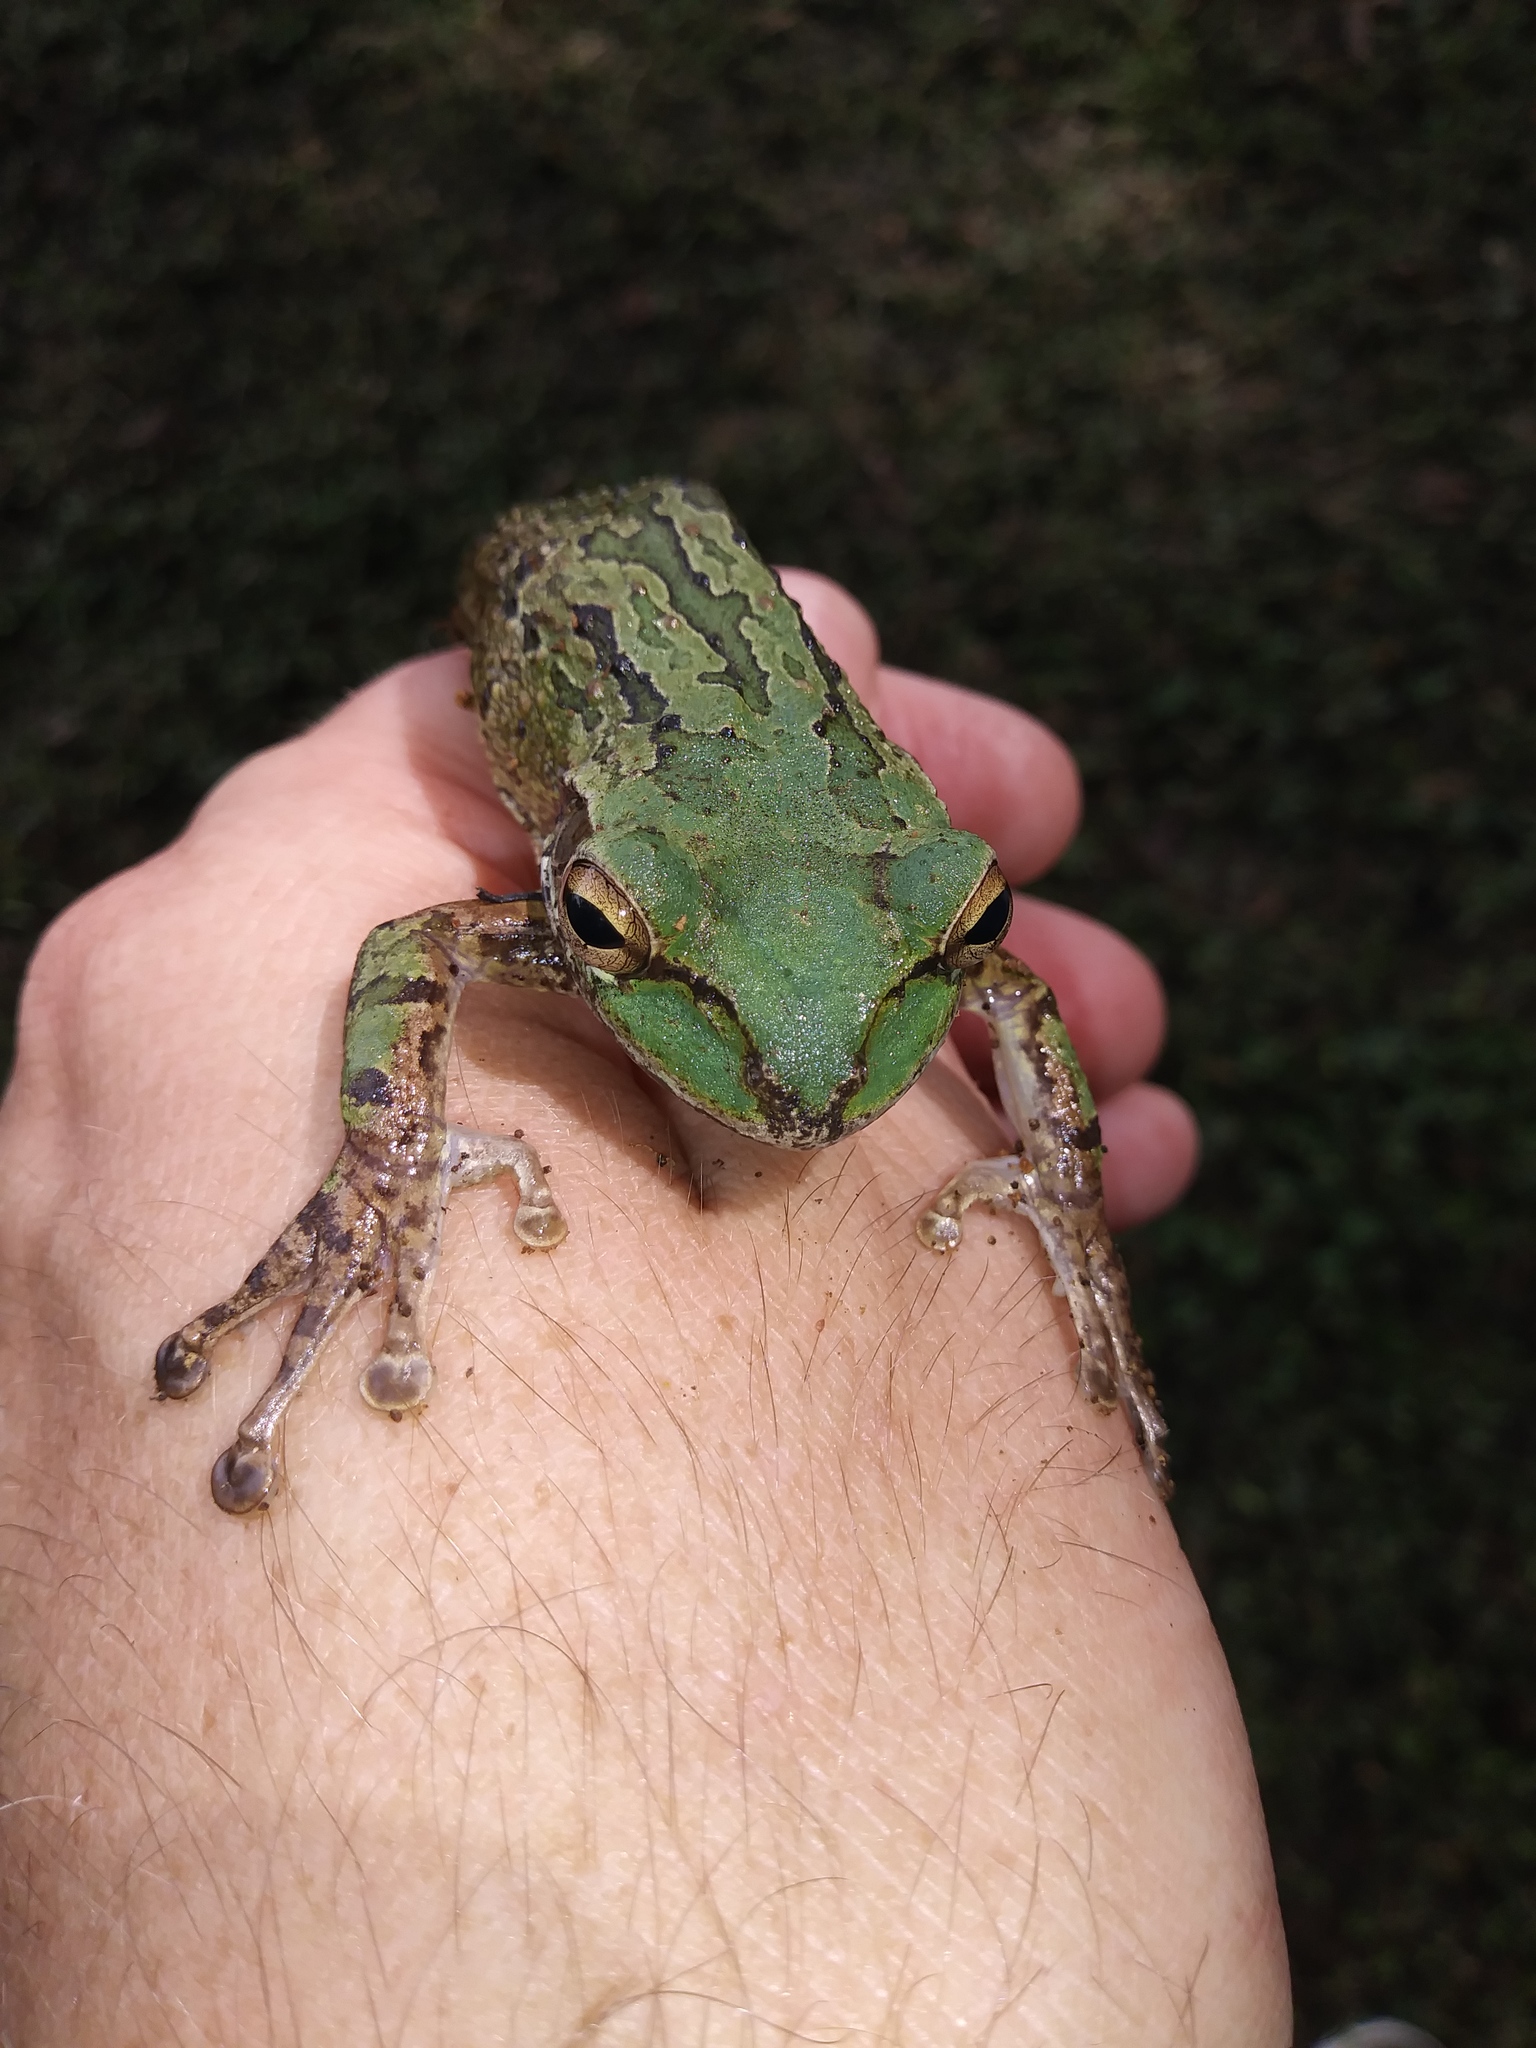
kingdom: Animalia
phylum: Chordata
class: Amphibia
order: Anura
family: Hylidae
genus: Osteopilus
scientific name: Osteopilus septentrionalis
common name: Cuban treefrog
